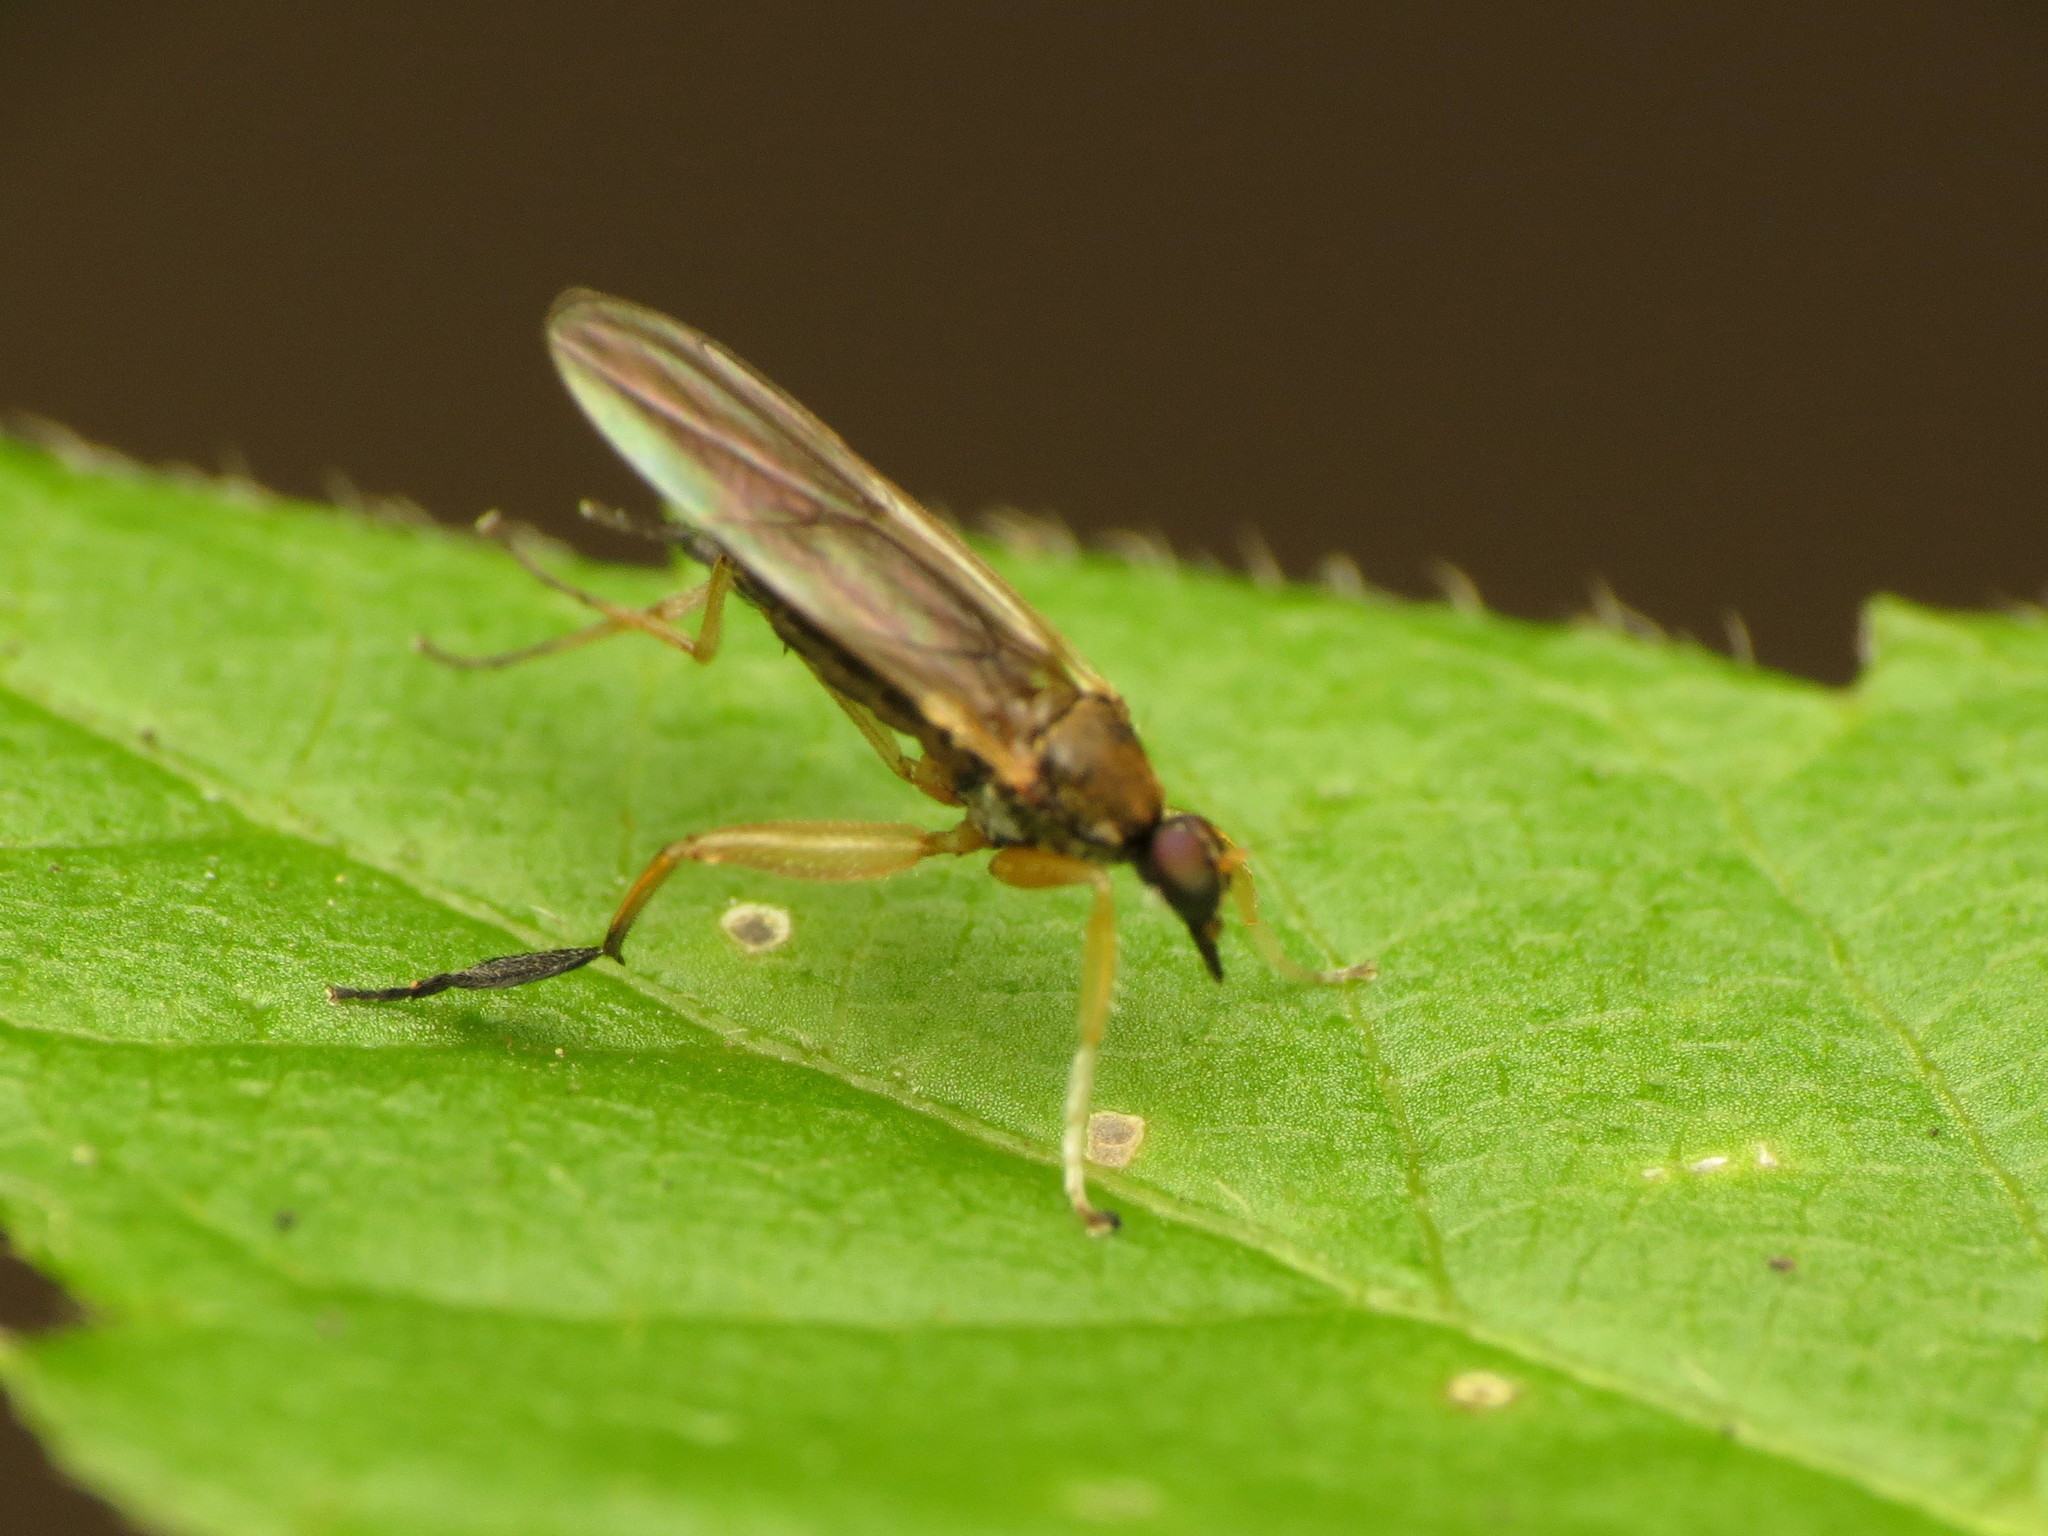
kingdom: Animalia
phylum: Arthropoda
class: Insecta
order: Diptera
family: Hybotidae
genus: Platypalpus
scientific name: Platypalpus discifer
